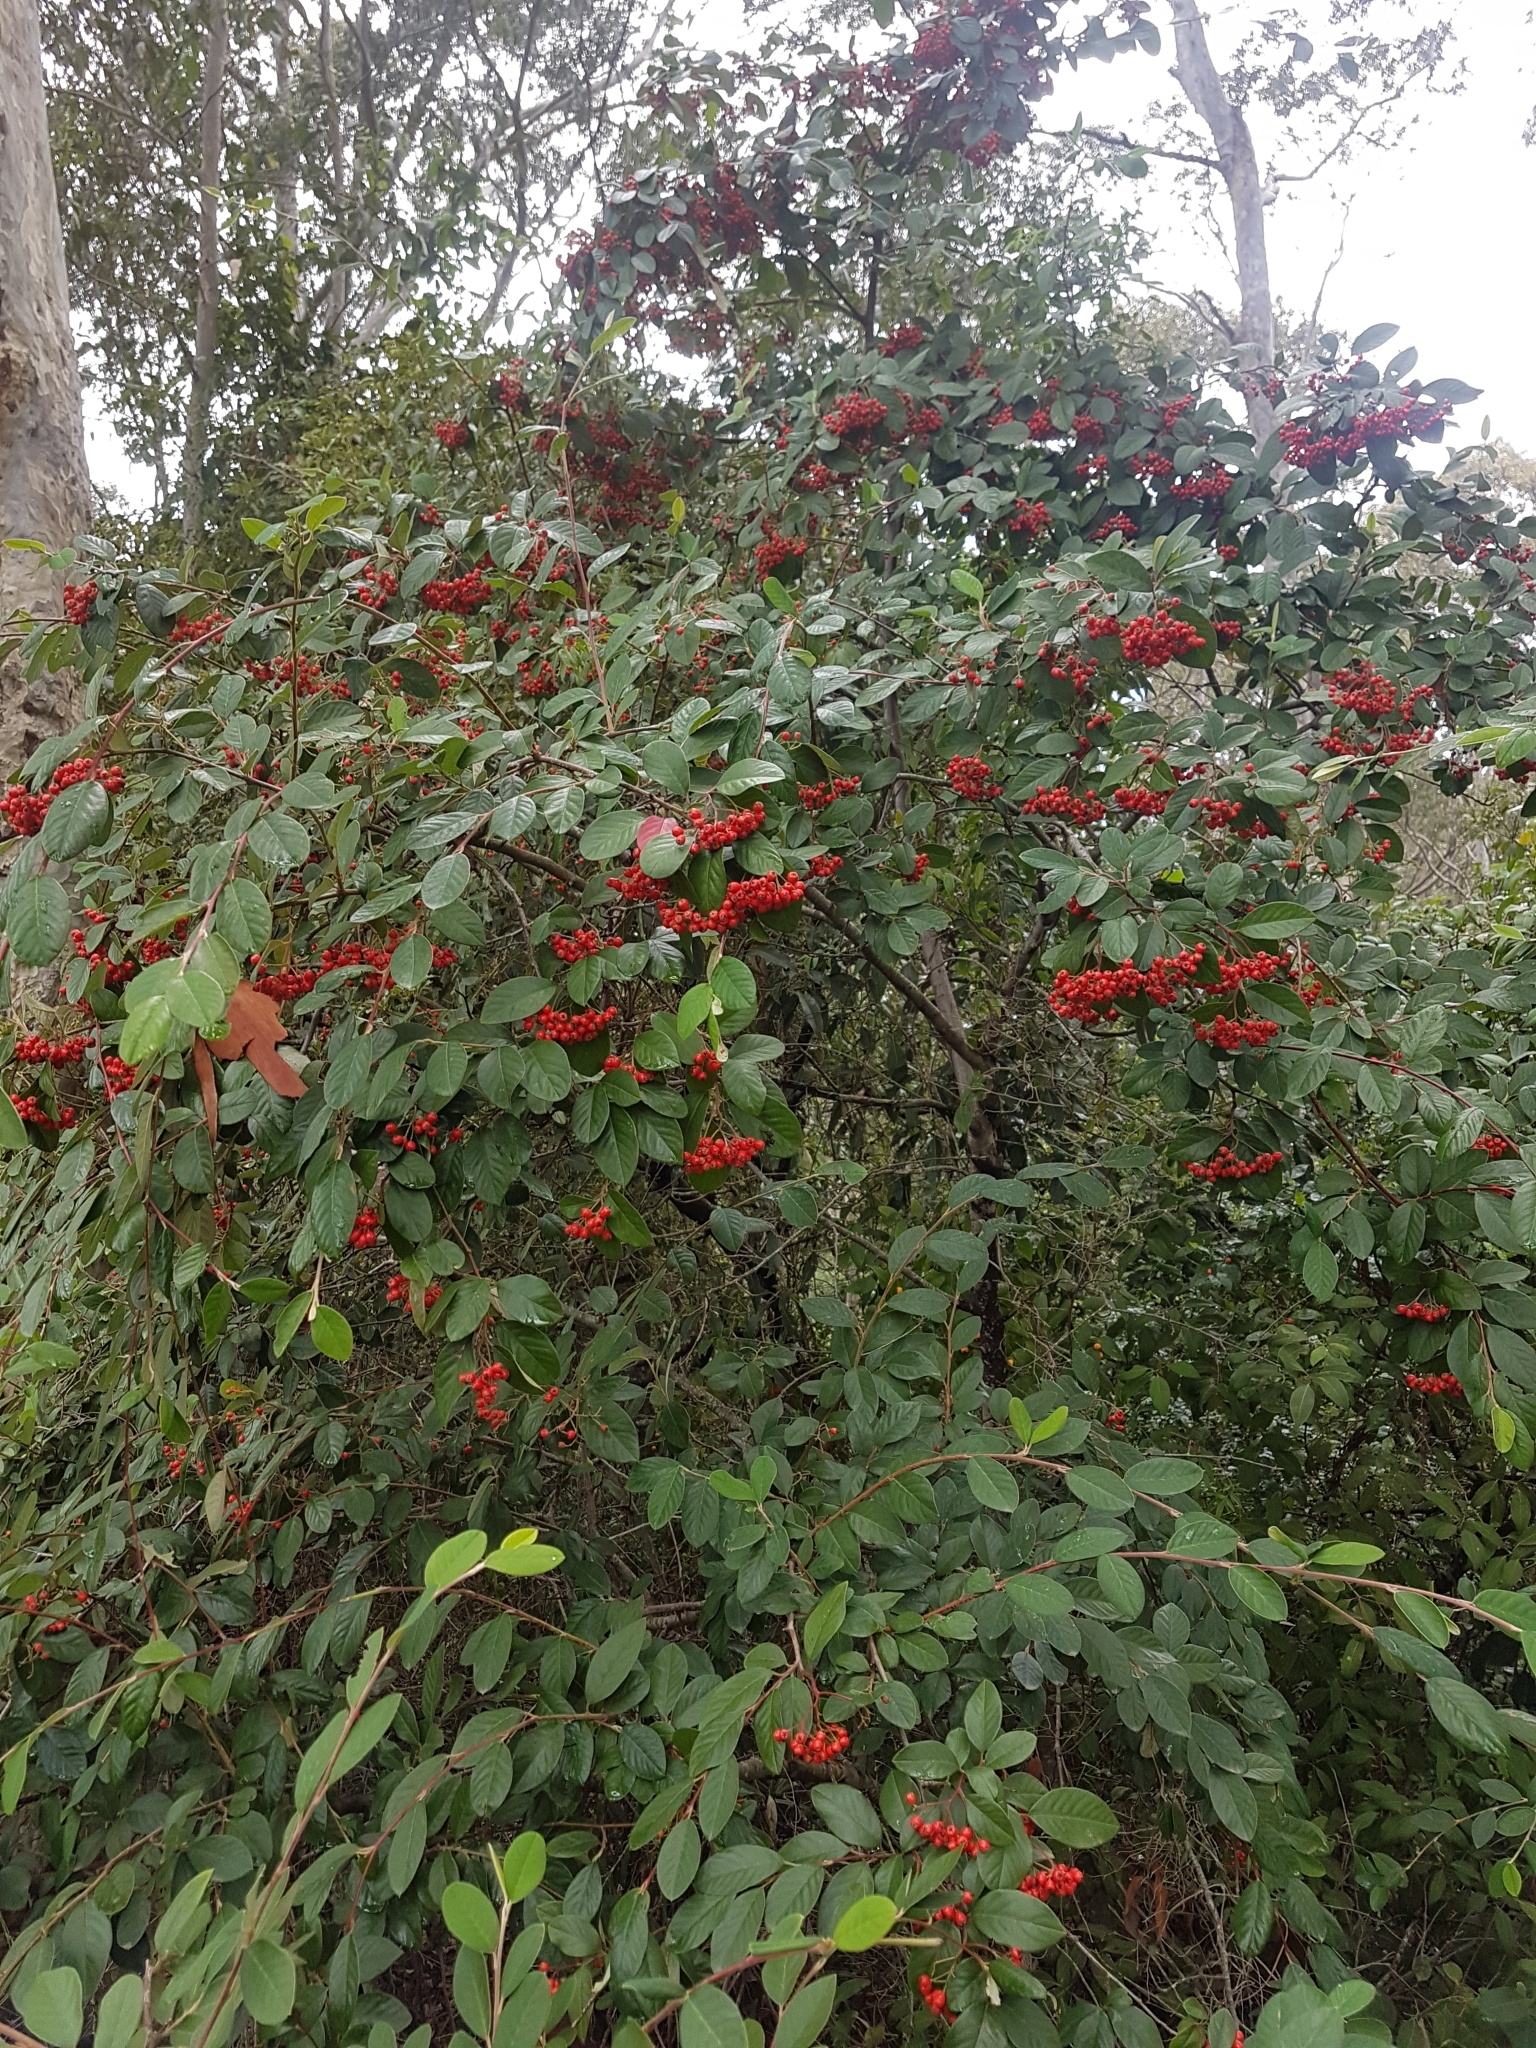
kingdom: Plantae
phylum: Tracheophyta
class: Magnoliopsida
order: Rosales
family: Rosaceae
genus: Cotoneaster
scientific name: Cotoneaster glaucophyllus
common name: Glaucous cotoneaster
